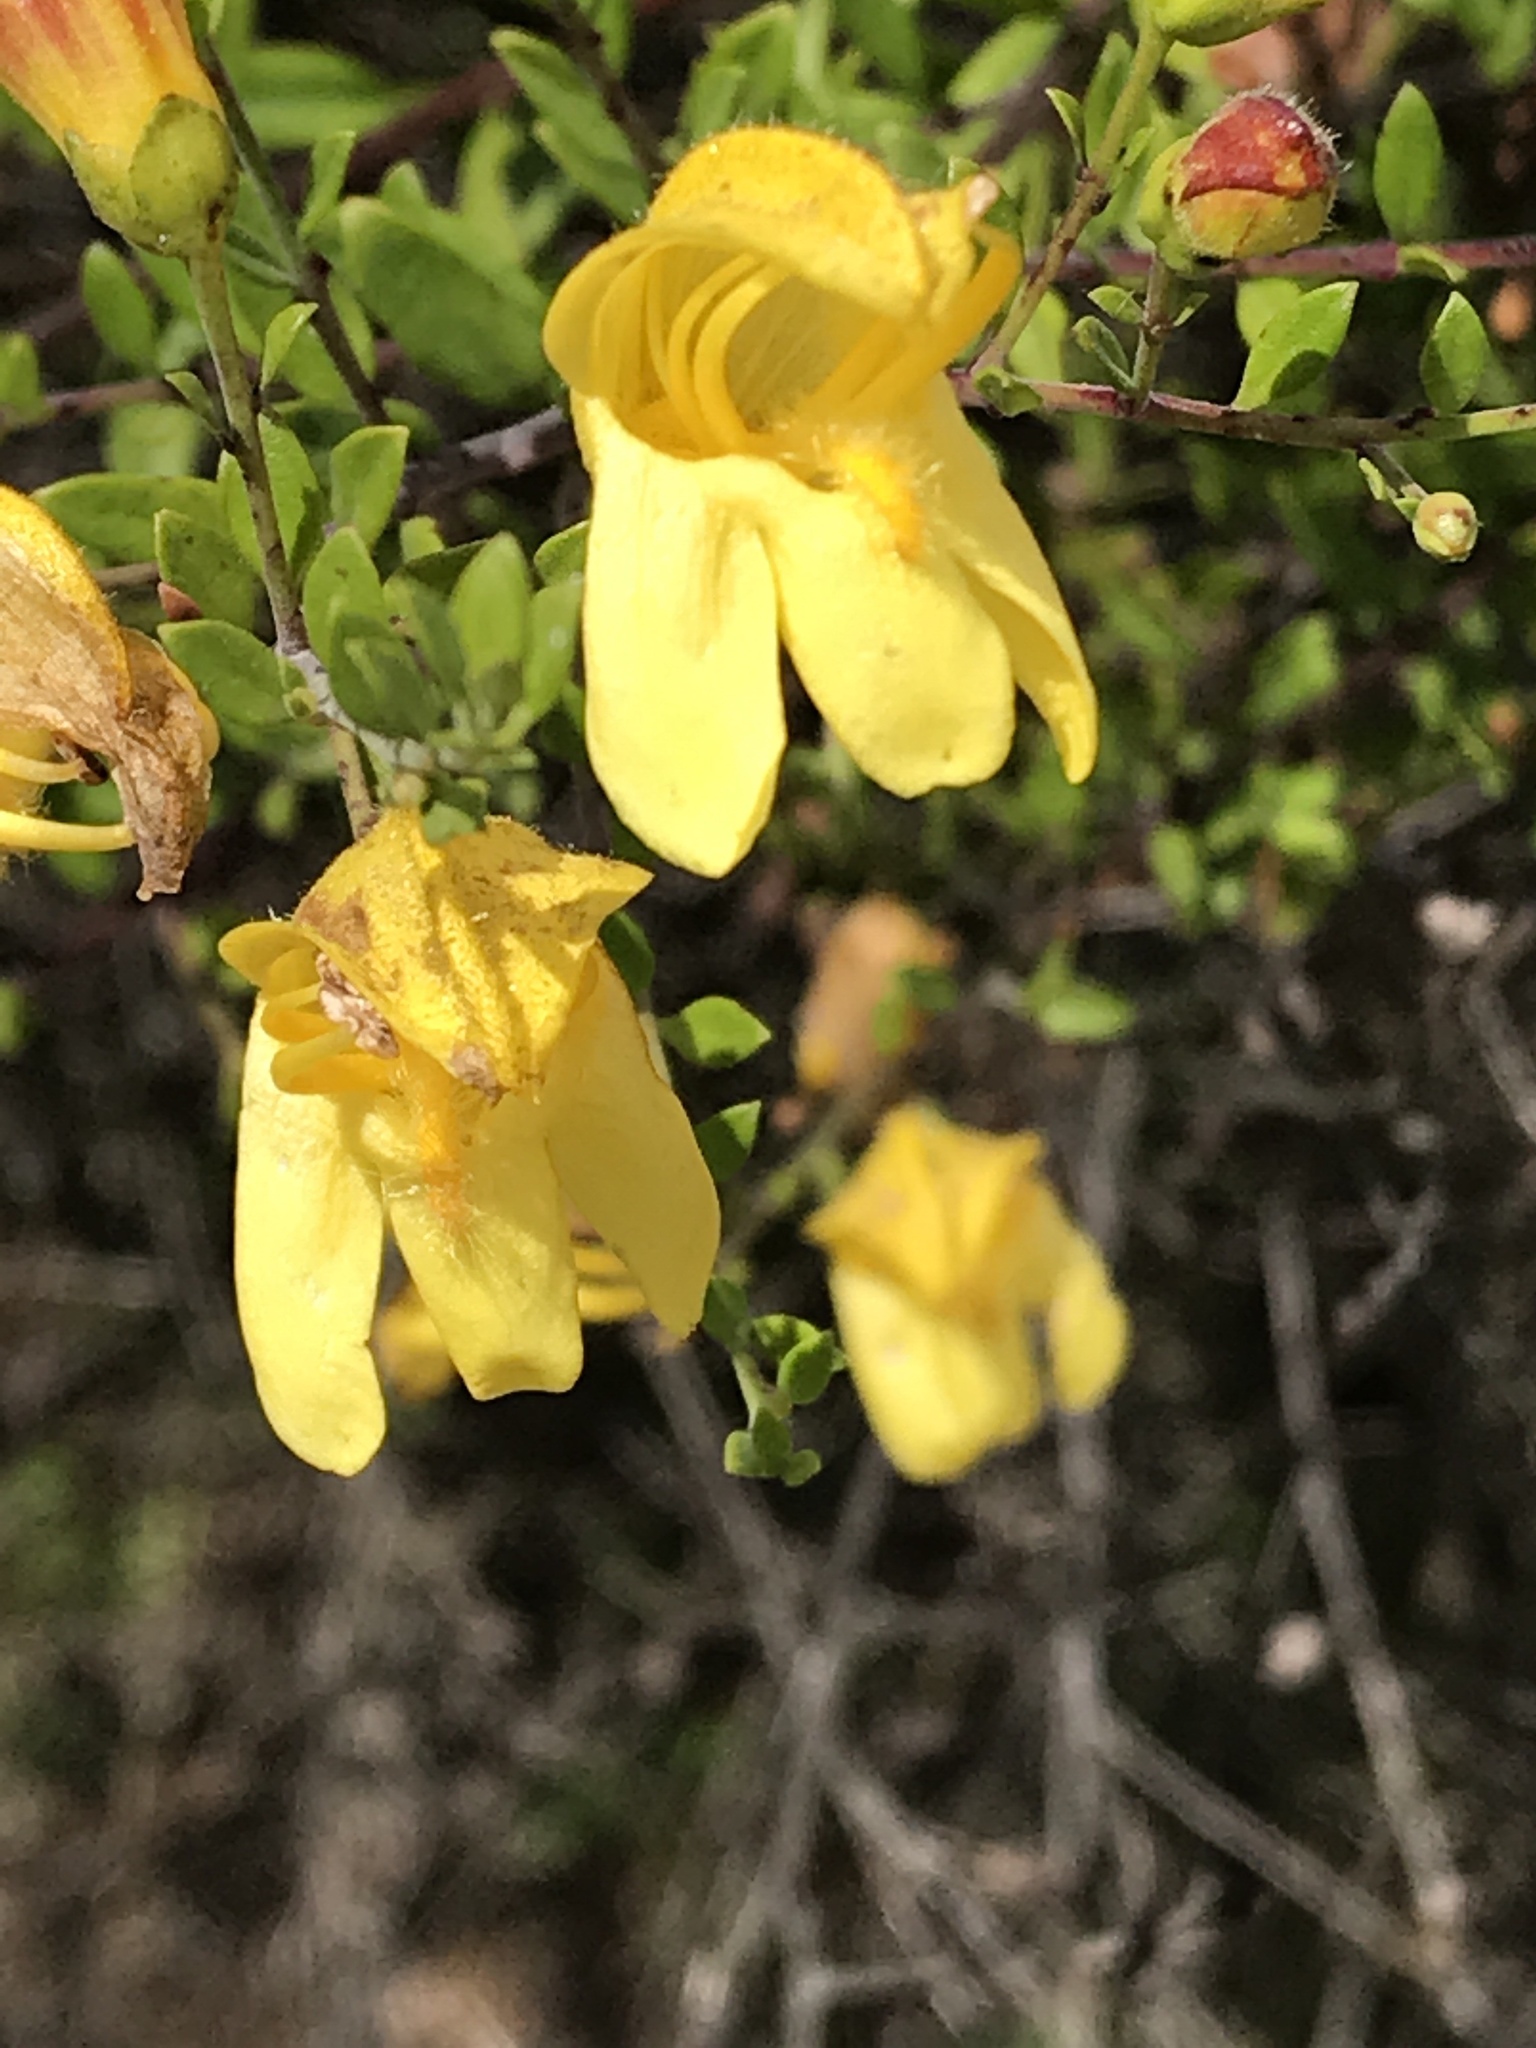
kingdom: Plantae
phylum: Tracheophyta
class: Magnoliopsida
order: Lamiales
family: Plantaginaceae
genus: Keckiella
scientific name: Keckiella antirrhinoides
